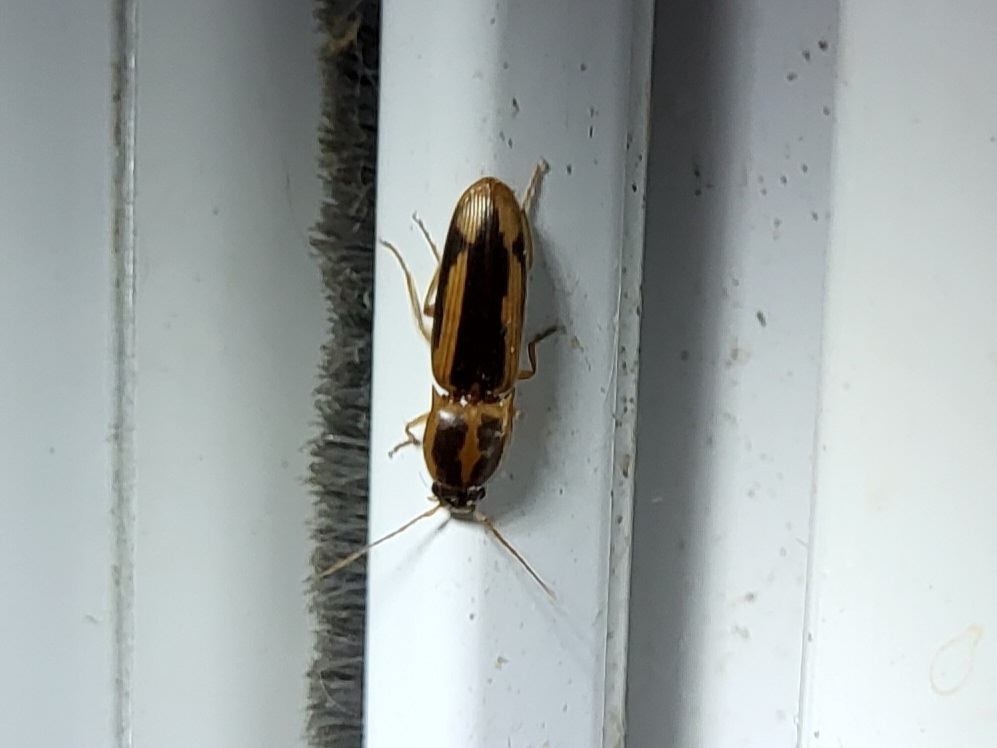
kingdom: Animalia
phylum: Arthropoda
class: Insecta
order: Coleoptera
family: Elateridae
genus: Monocrepidius
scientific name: Monocrepidius
